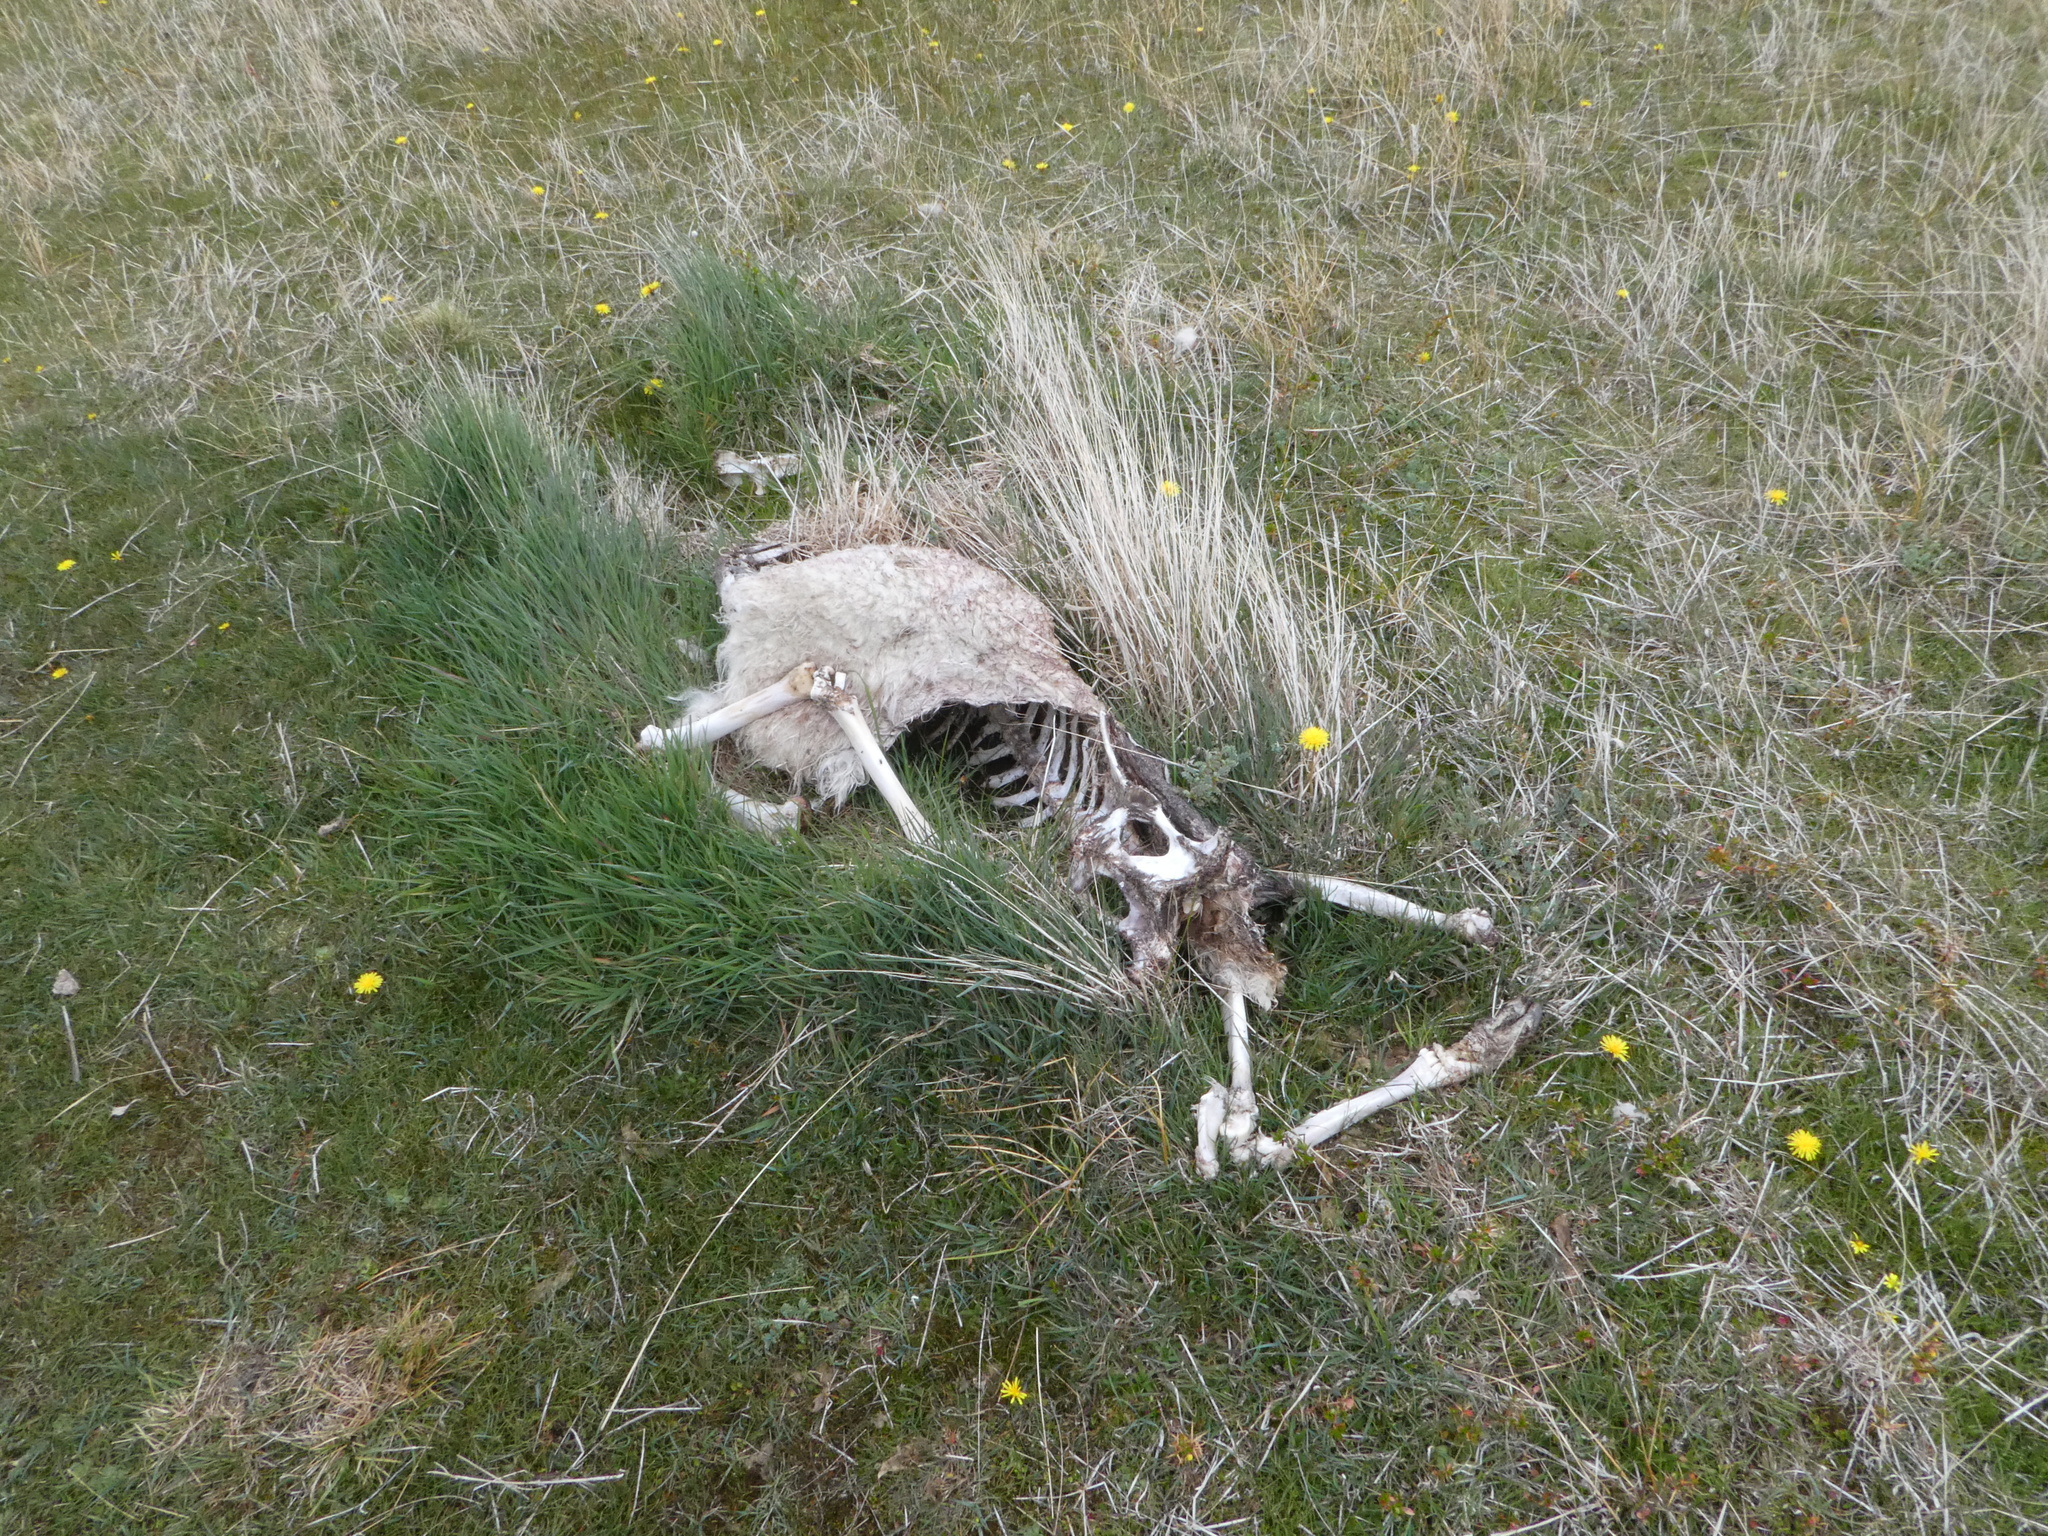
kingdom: Animalia
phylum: Chordata
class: Mammalia
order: Artiodactyla
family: Camelidae
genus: Lama
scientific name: Lama glama
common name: Llama
